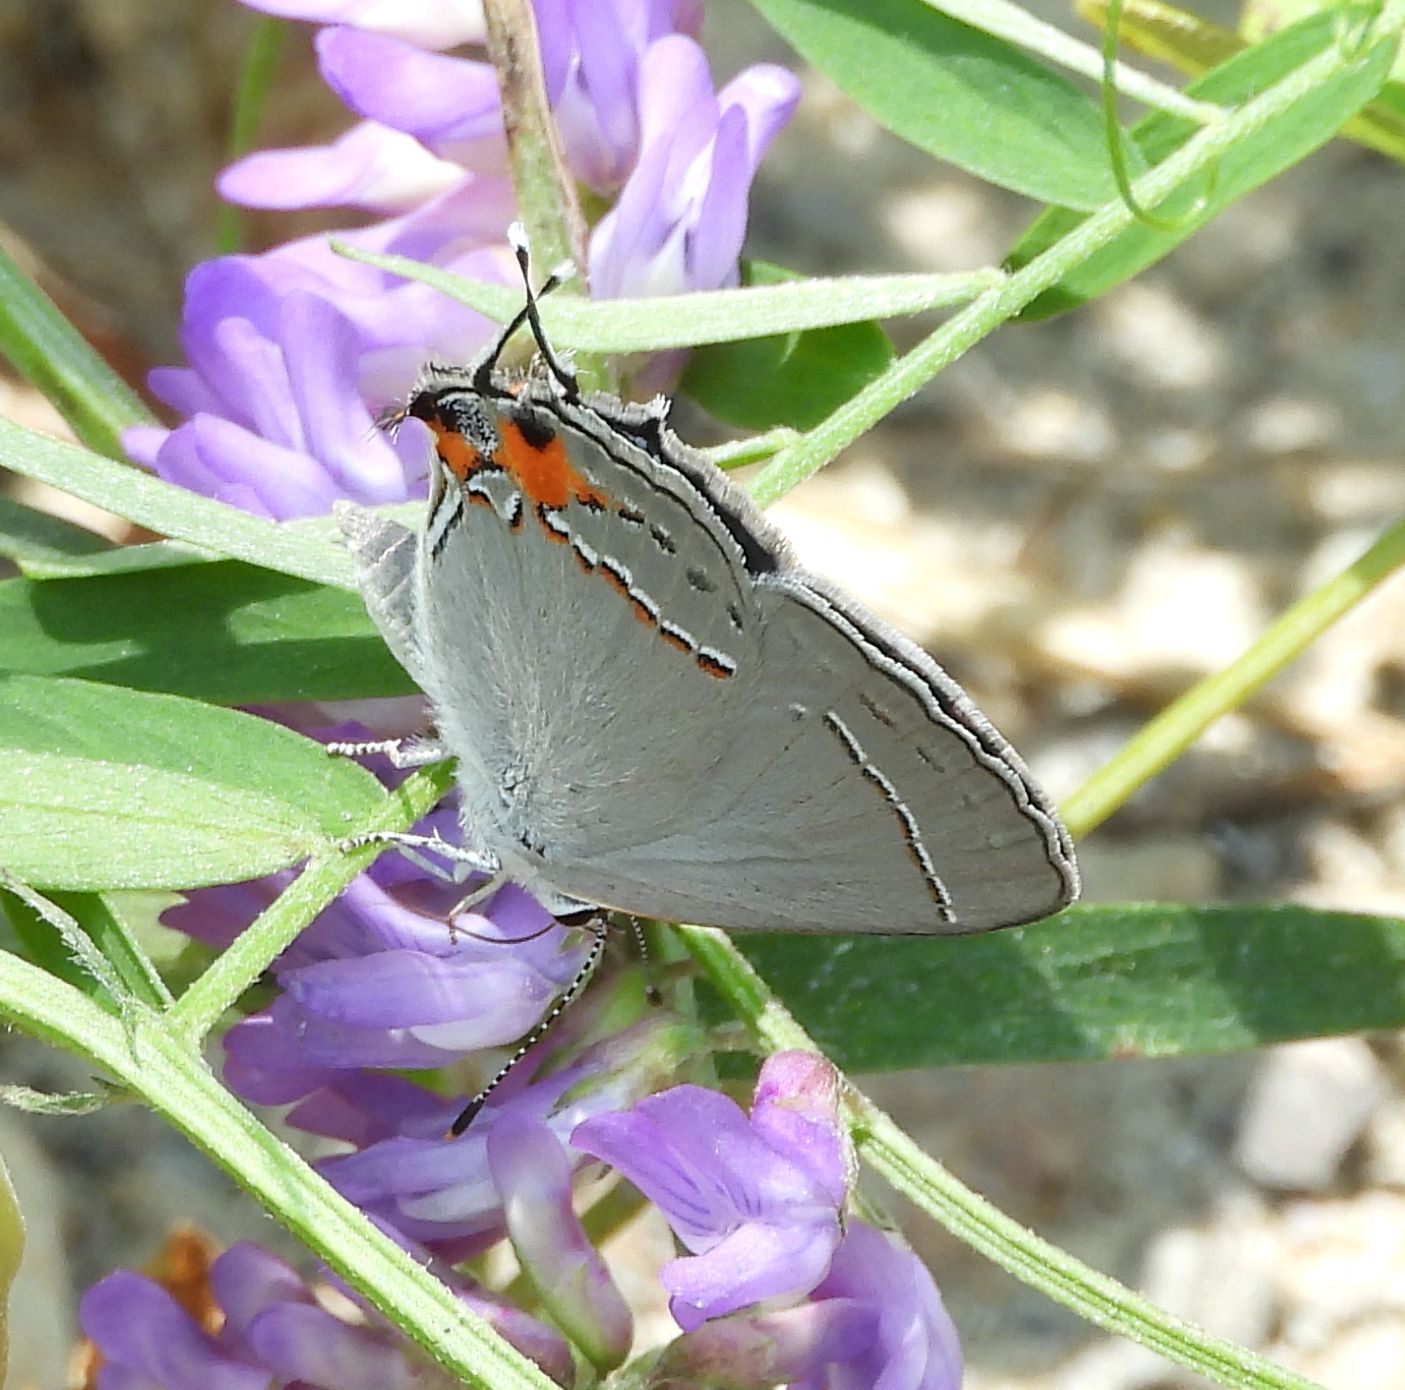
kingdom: Animalia
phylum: Arthropoda
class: Insecta
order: Lepidoptera
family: Lycaenidae
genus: Strymon
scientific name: Strymon melinus
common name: Gray hairstreak
